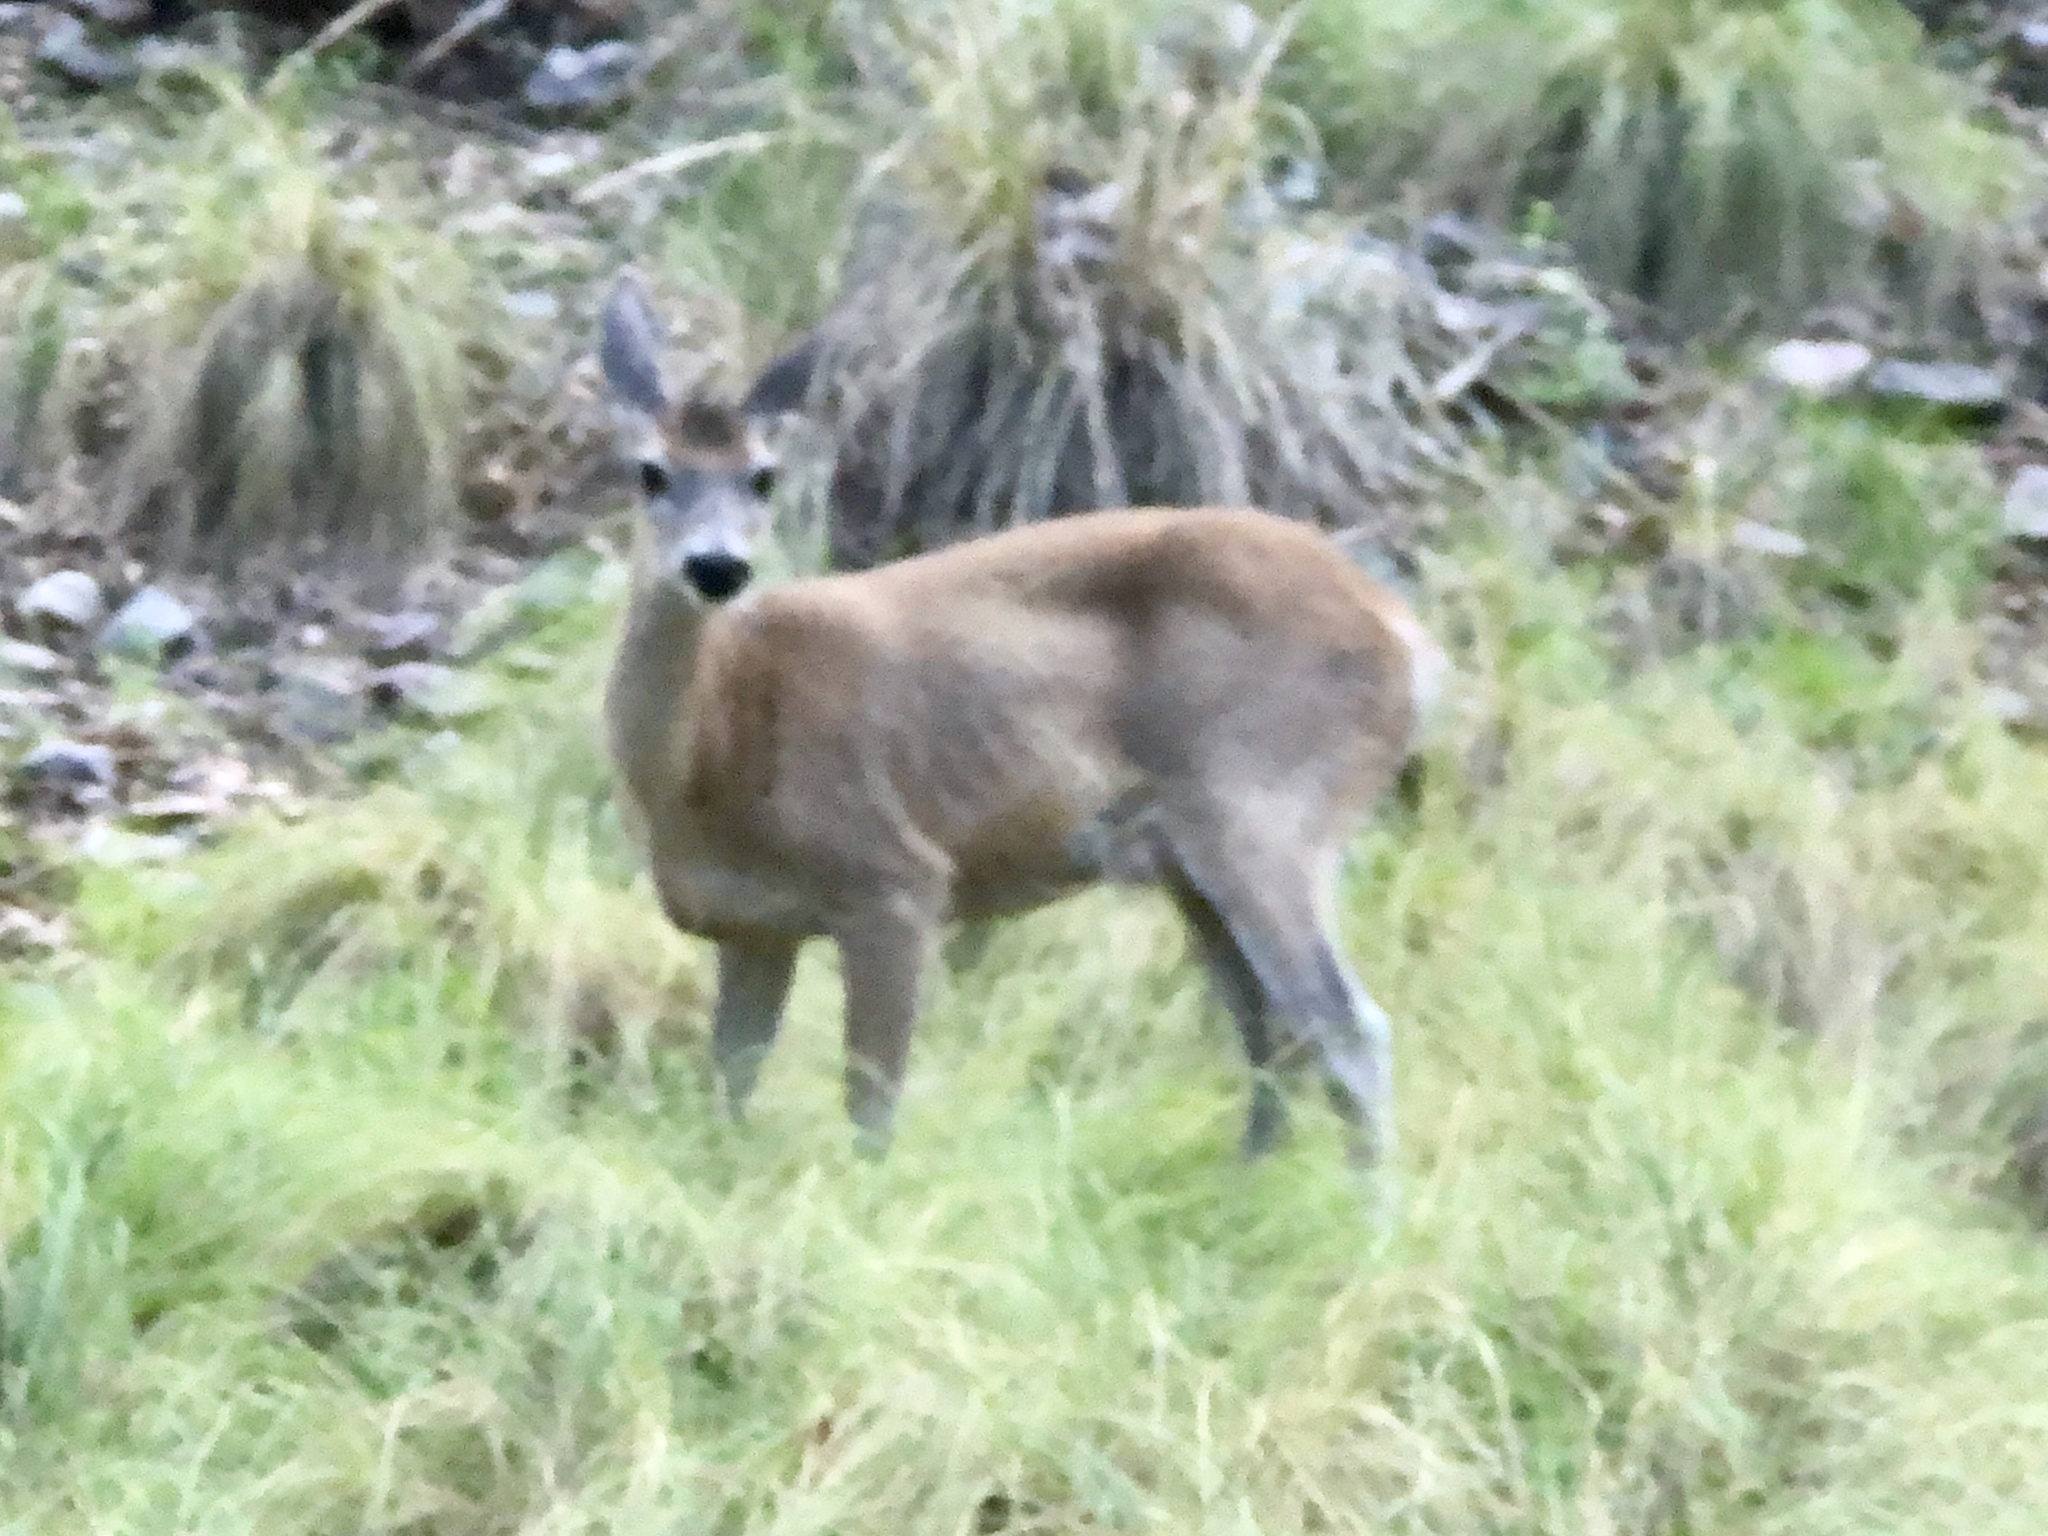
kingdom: Animalia
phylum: Chordata
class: Mammalia
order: Artiodactyla
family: Cervidae
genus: Odocoileus
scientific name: Odocoileus virginianus
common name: White-tailed deer
